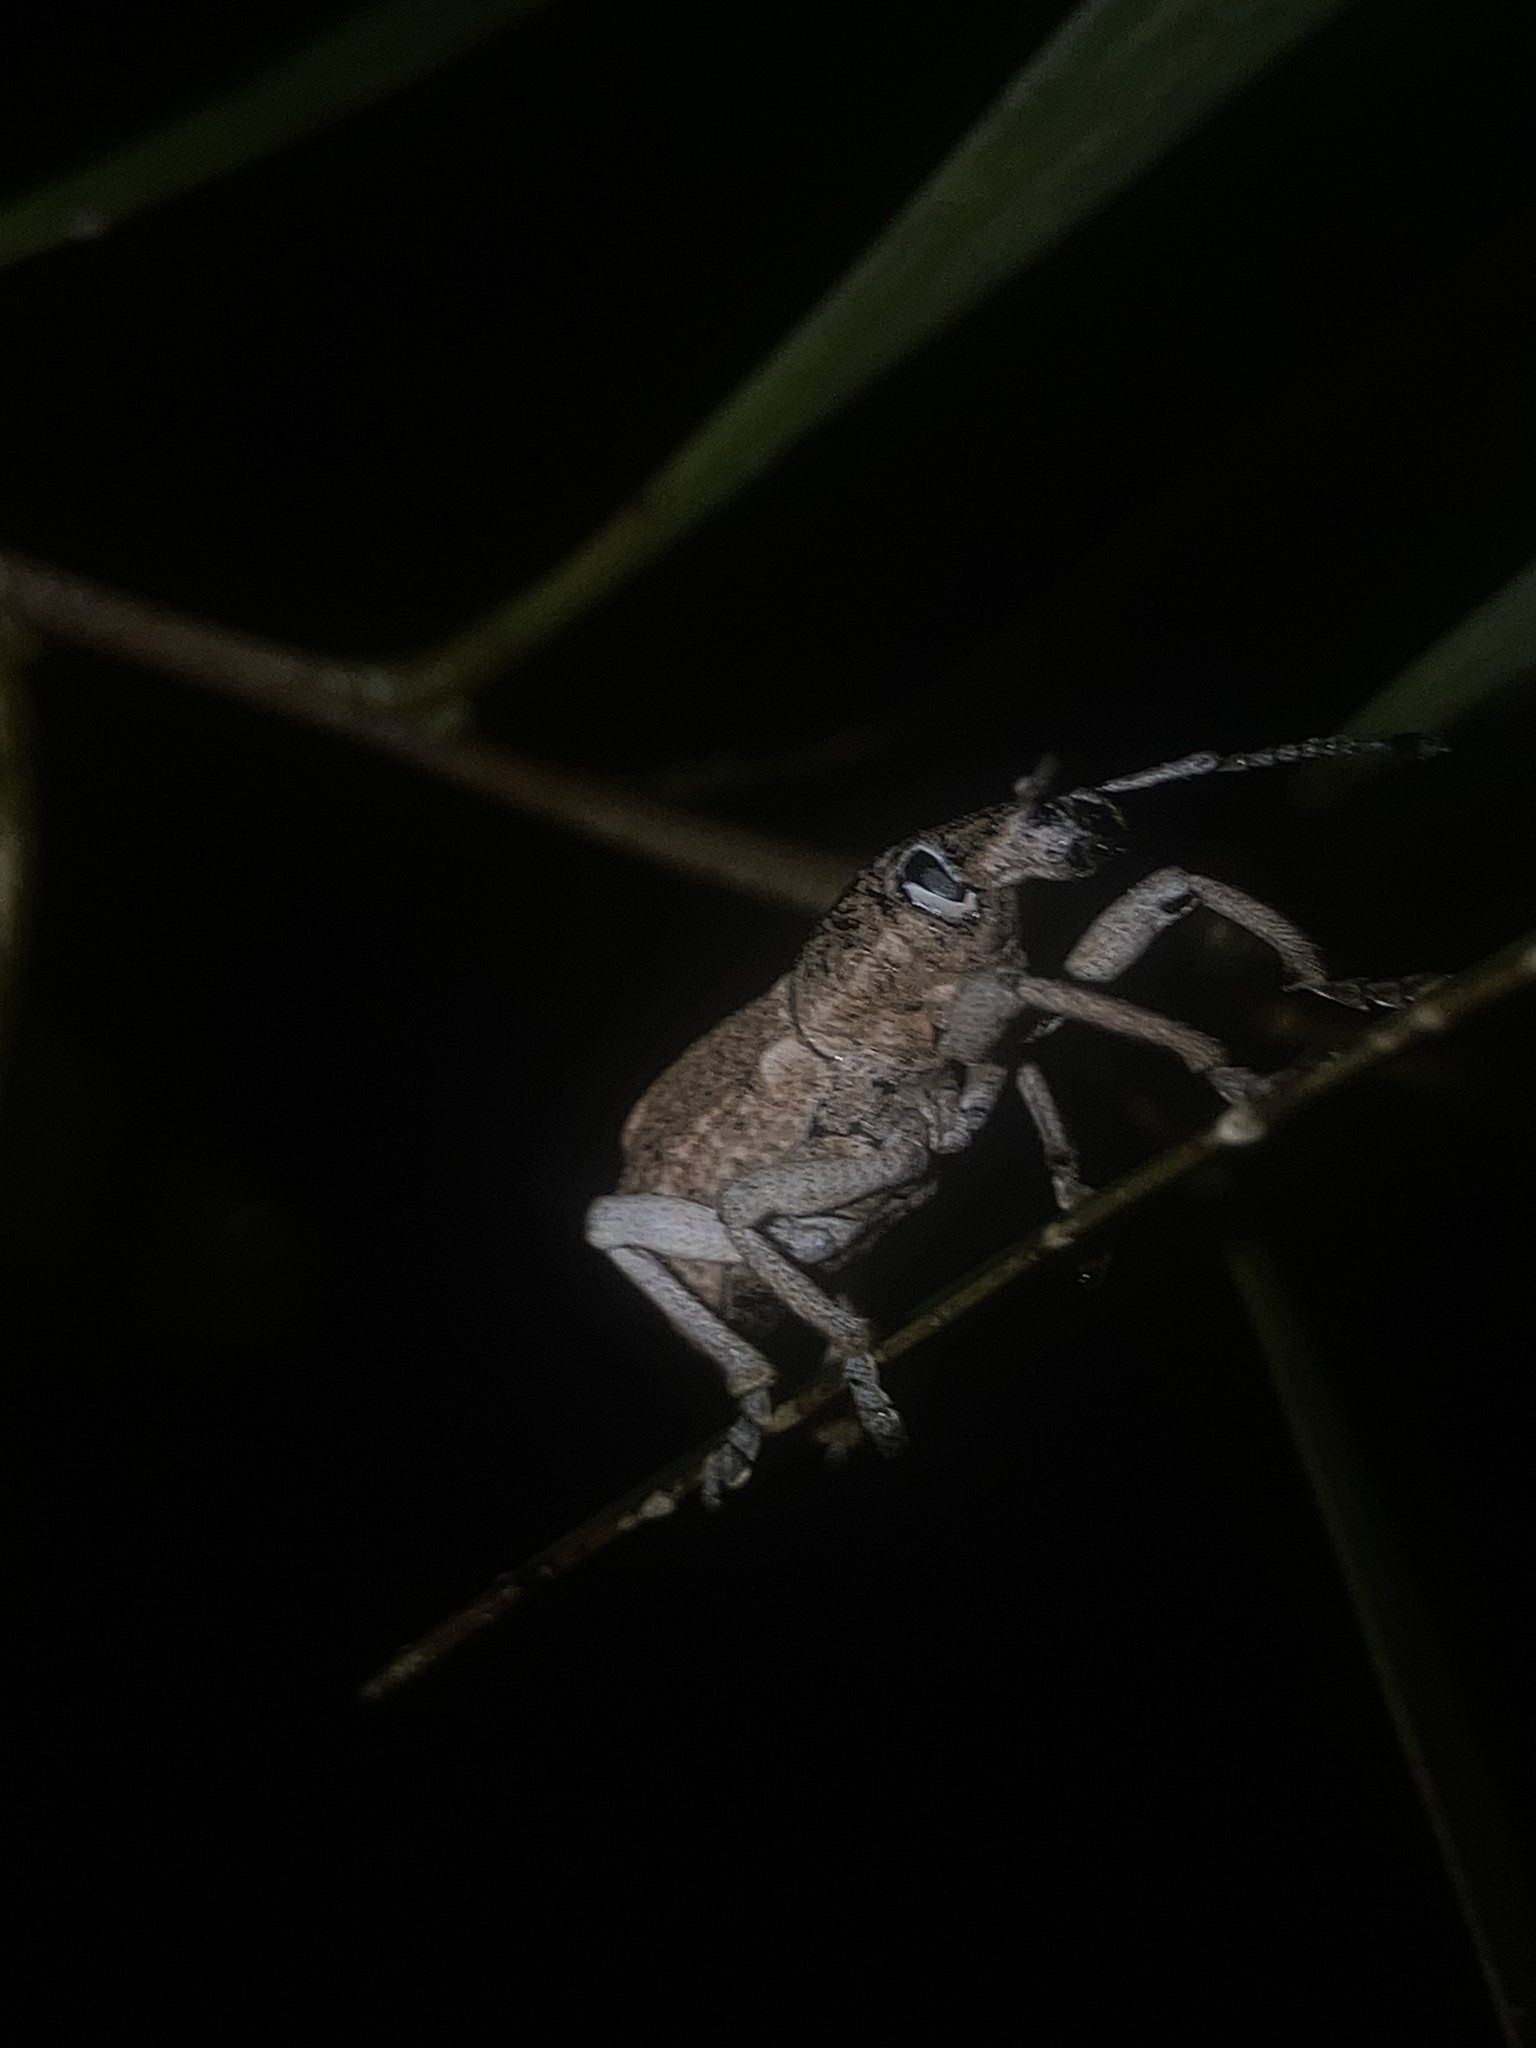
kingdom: Animalia
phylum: Arthropoda
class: Insecta
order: Coleoptera
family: Curculionidae
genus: Leptopius
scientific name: Leptopius robustus
